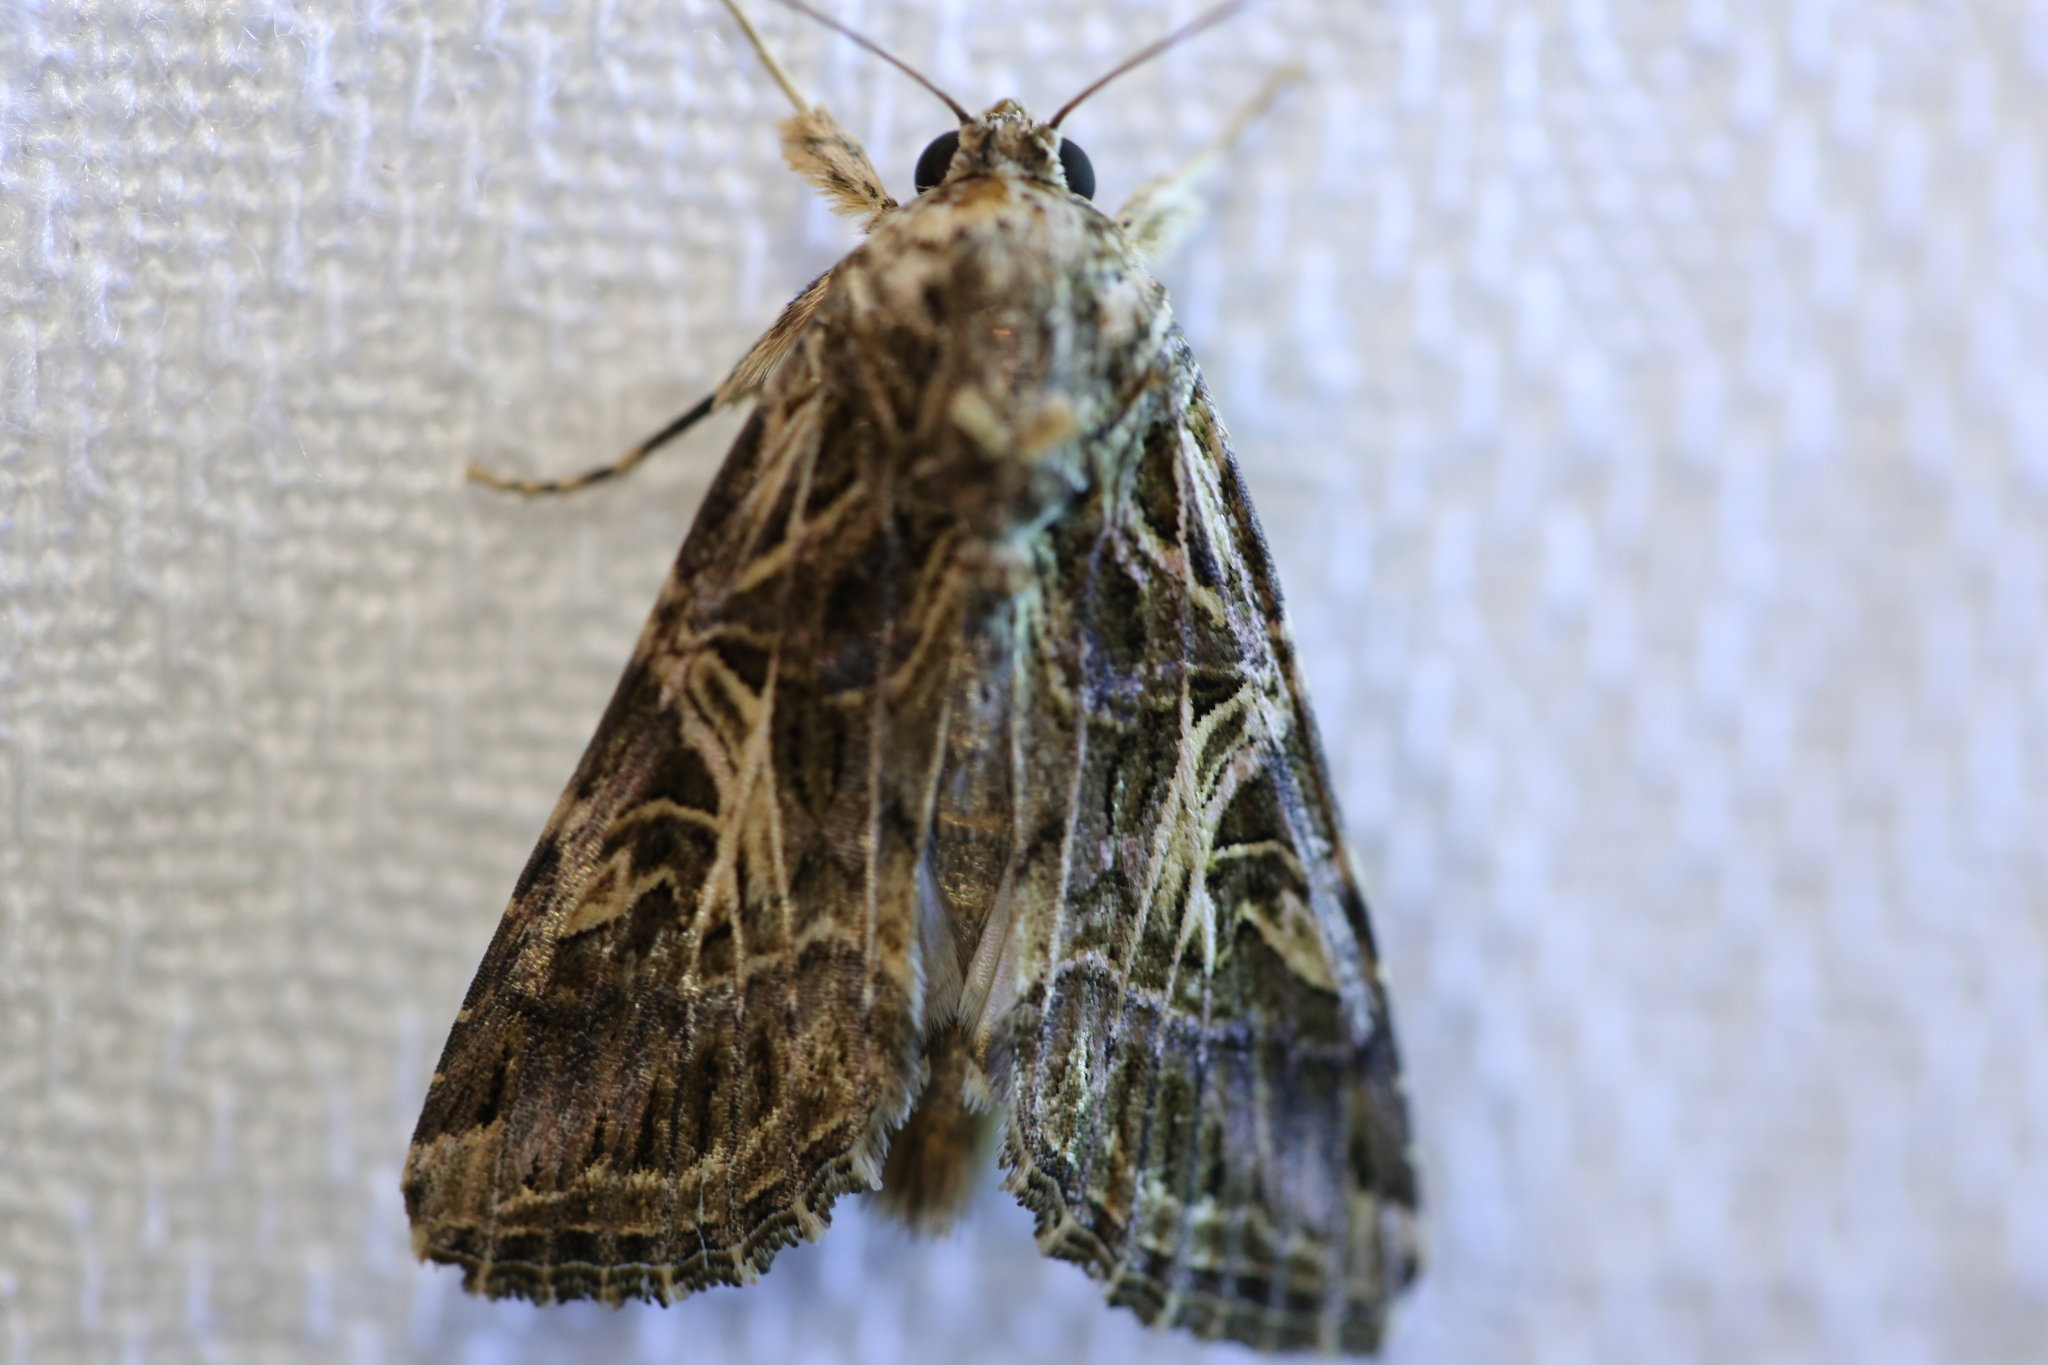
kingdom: Animalia
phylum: Arthropoda
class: Insecta
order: Lepidoptera
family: Noctuidae
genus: Spodoptera
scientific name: Spodoptera litura
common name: Asian cotton leafworm
